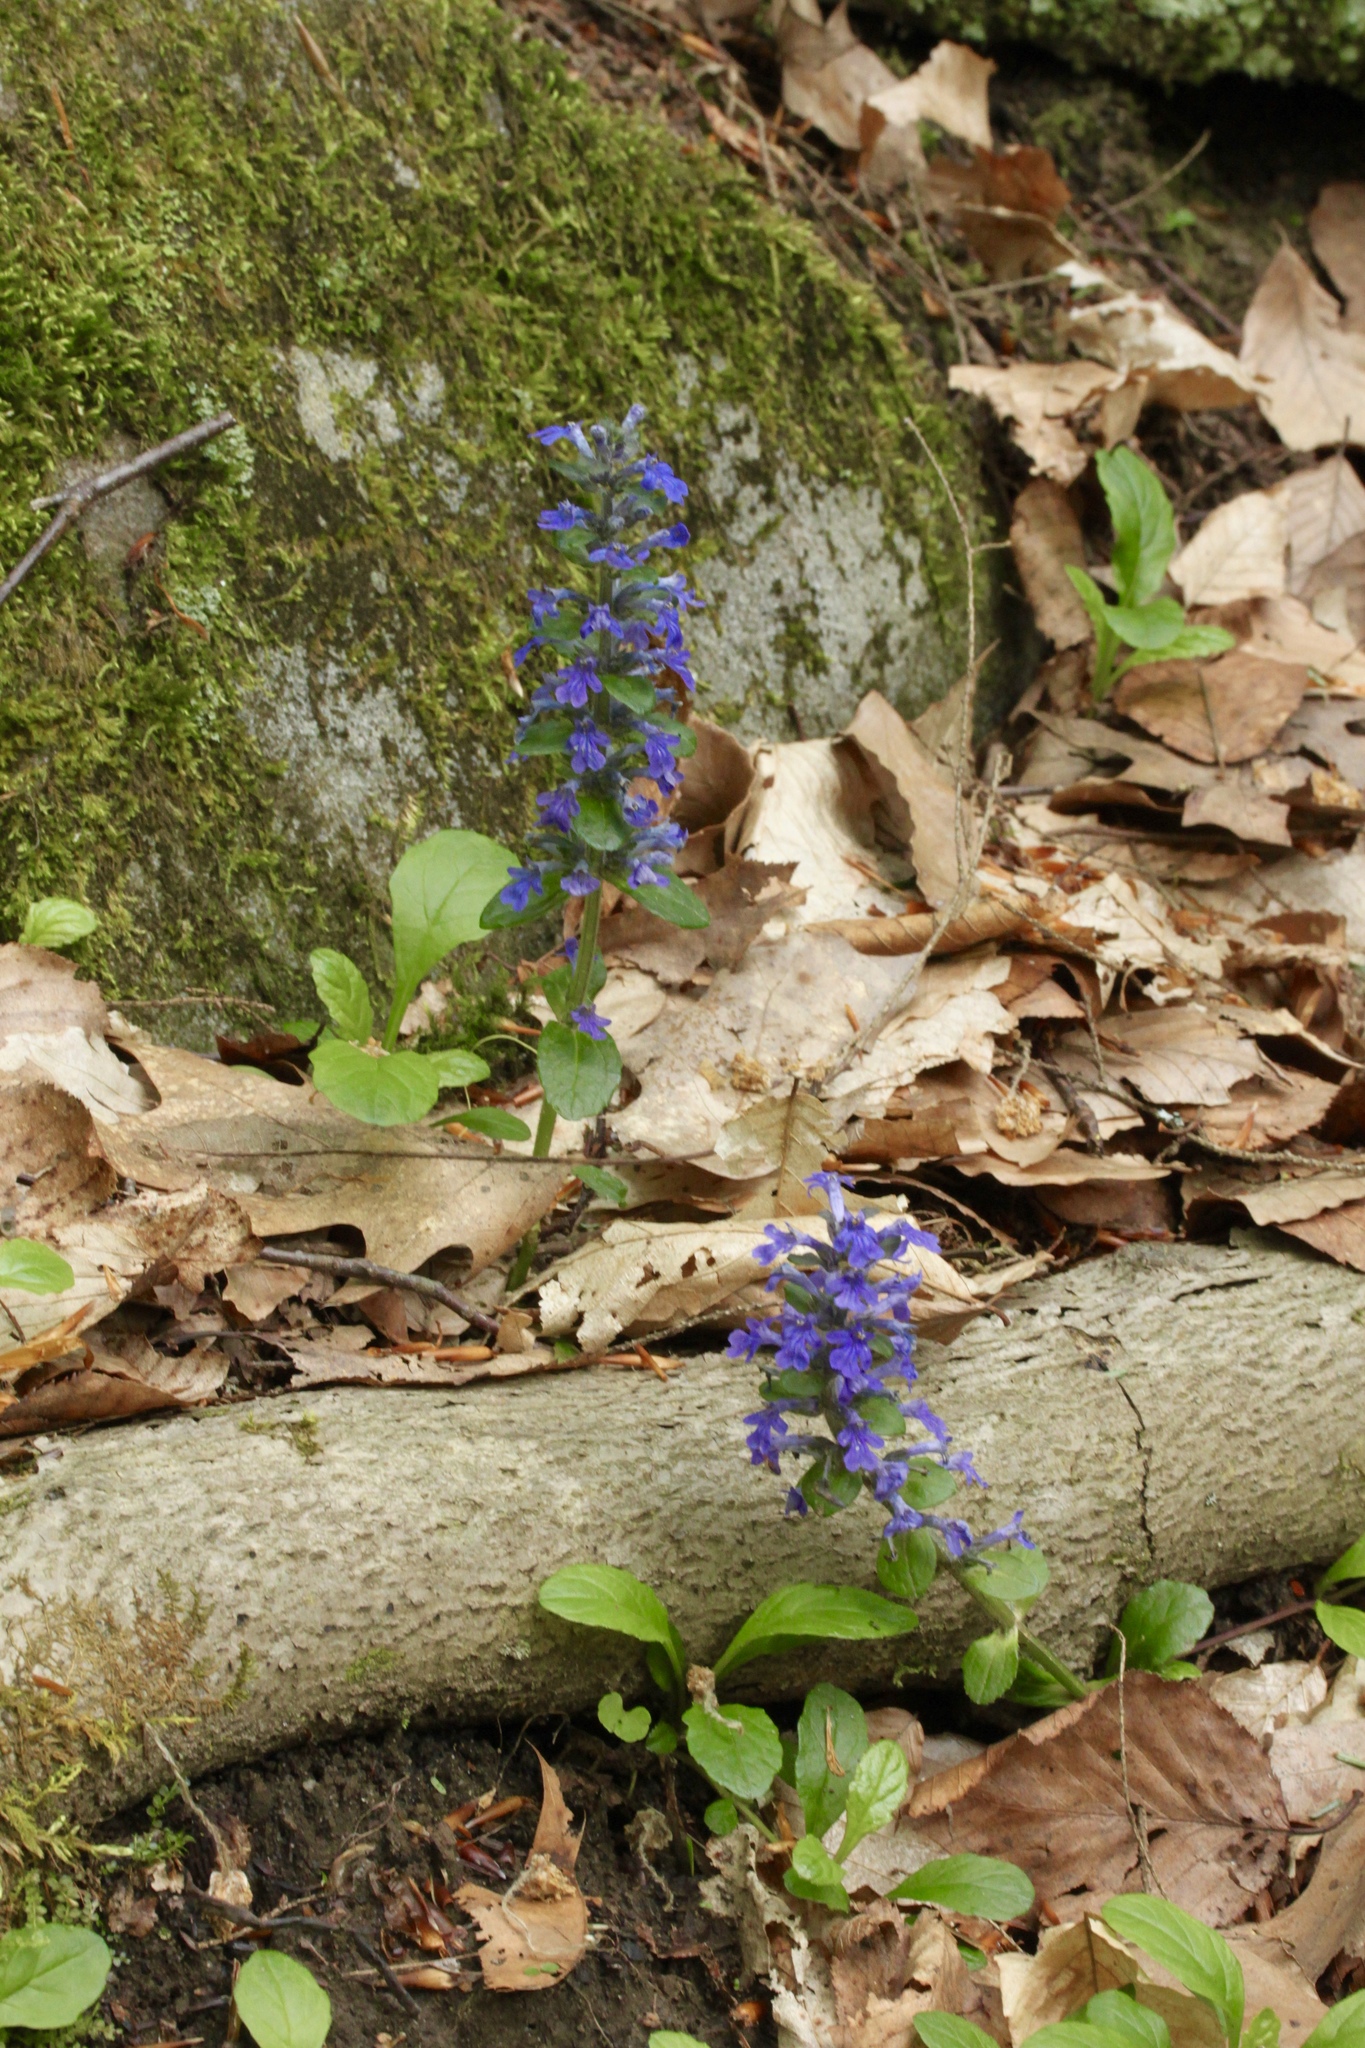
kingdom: Plantae
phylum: Tracheophyta
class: Magnoliopsida
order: Lamiales
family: Lamiaceae
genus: Ajuga
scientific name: Ajuga reptans
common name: Bugle
